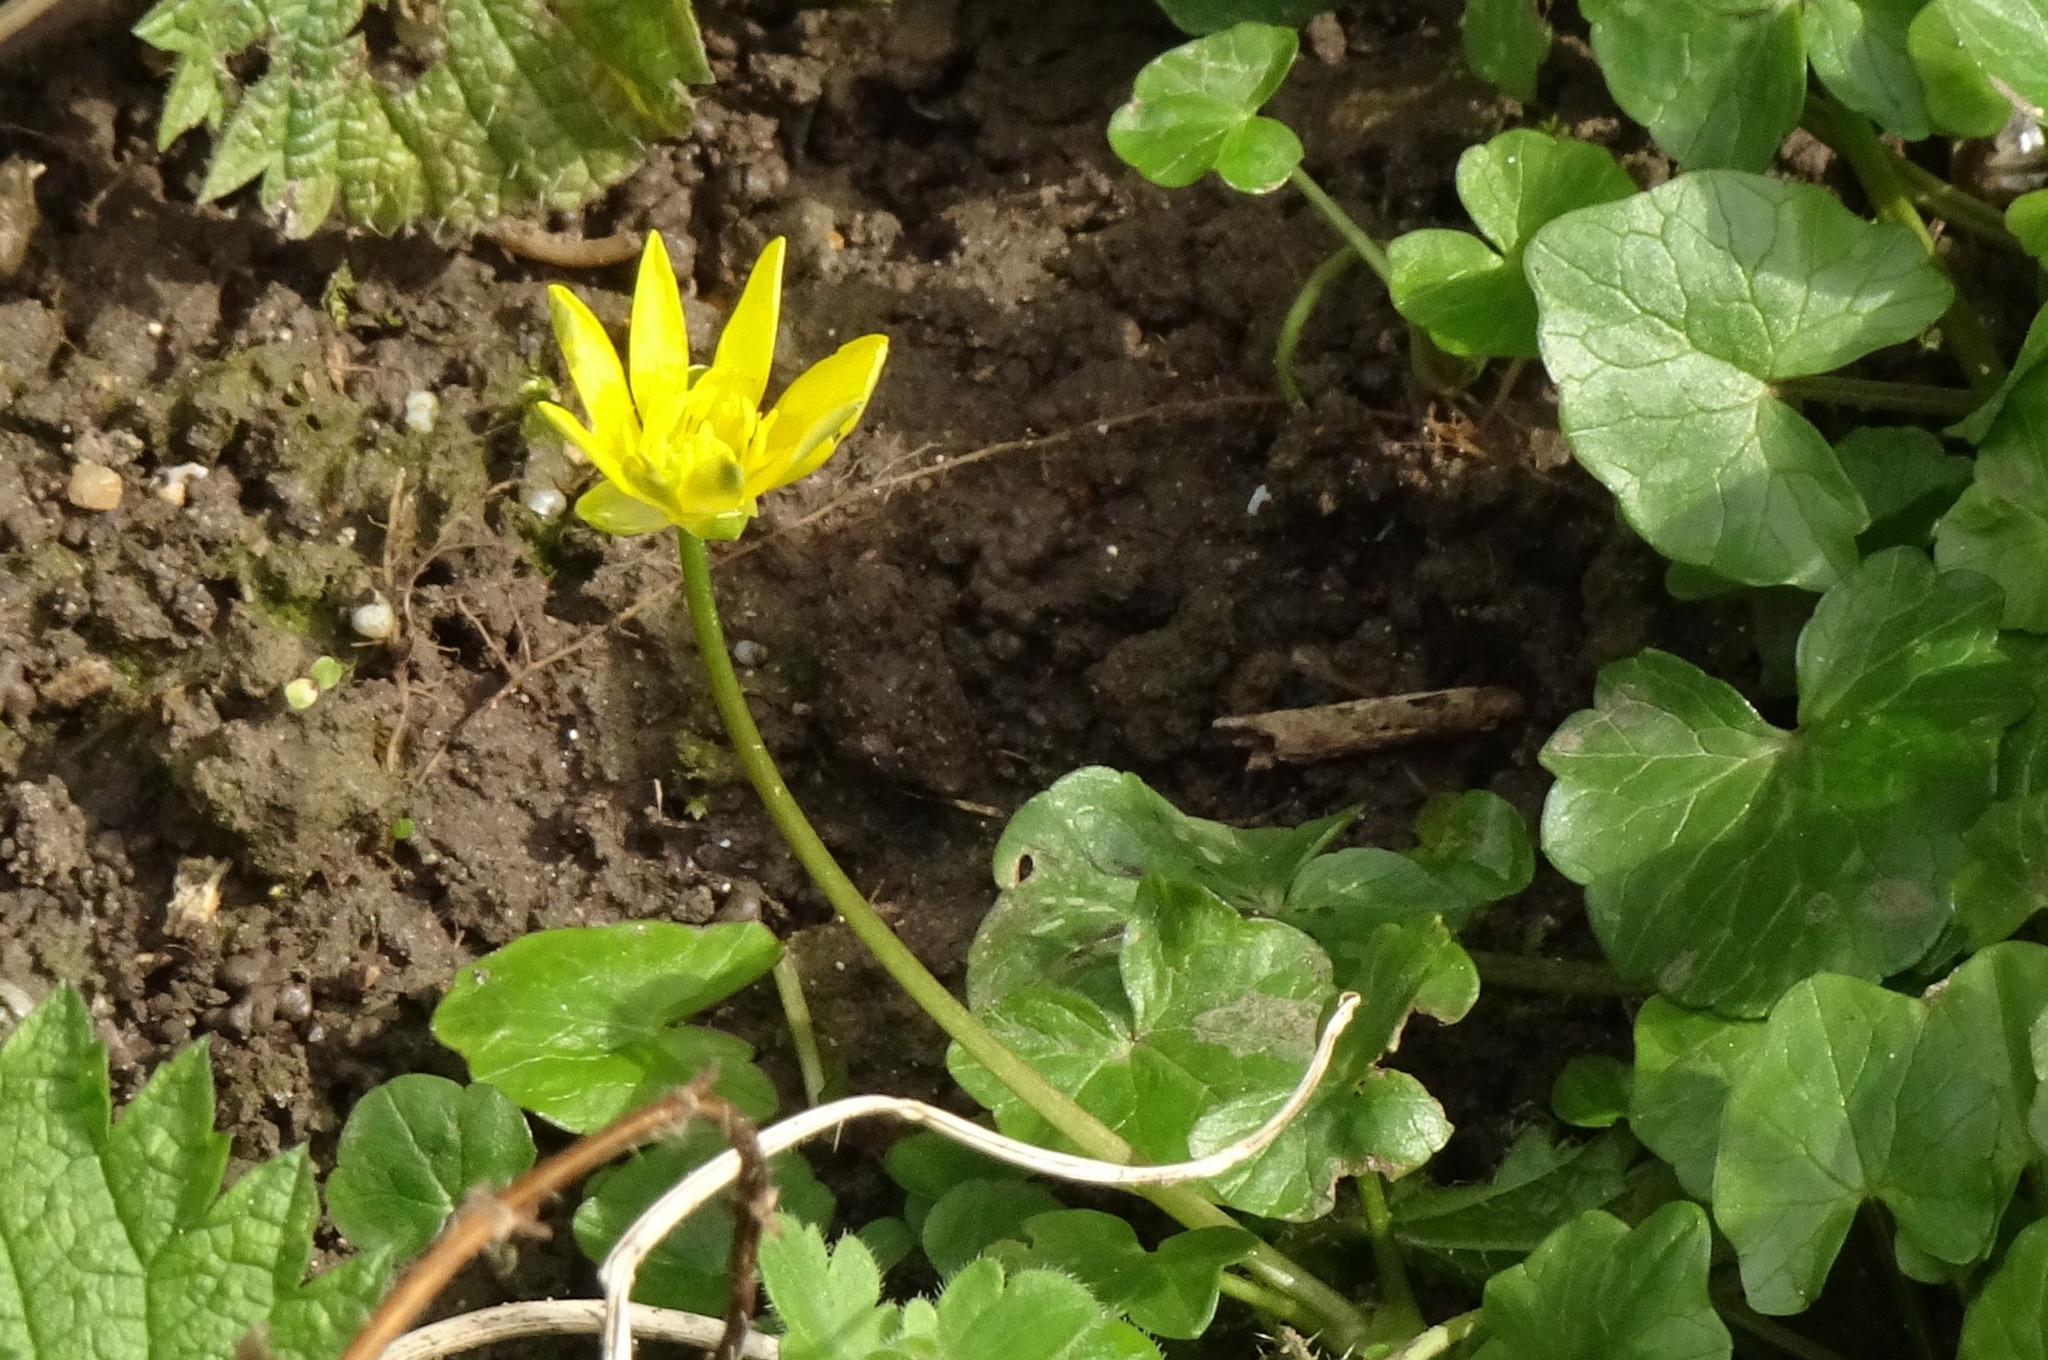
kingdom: Plantae
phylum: Tracheophyta
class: Magnoliopsida
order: Ranunculales
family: Ranunculaceae
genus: Ficaria
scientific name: Ficaria verna
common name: Lesser celandine
